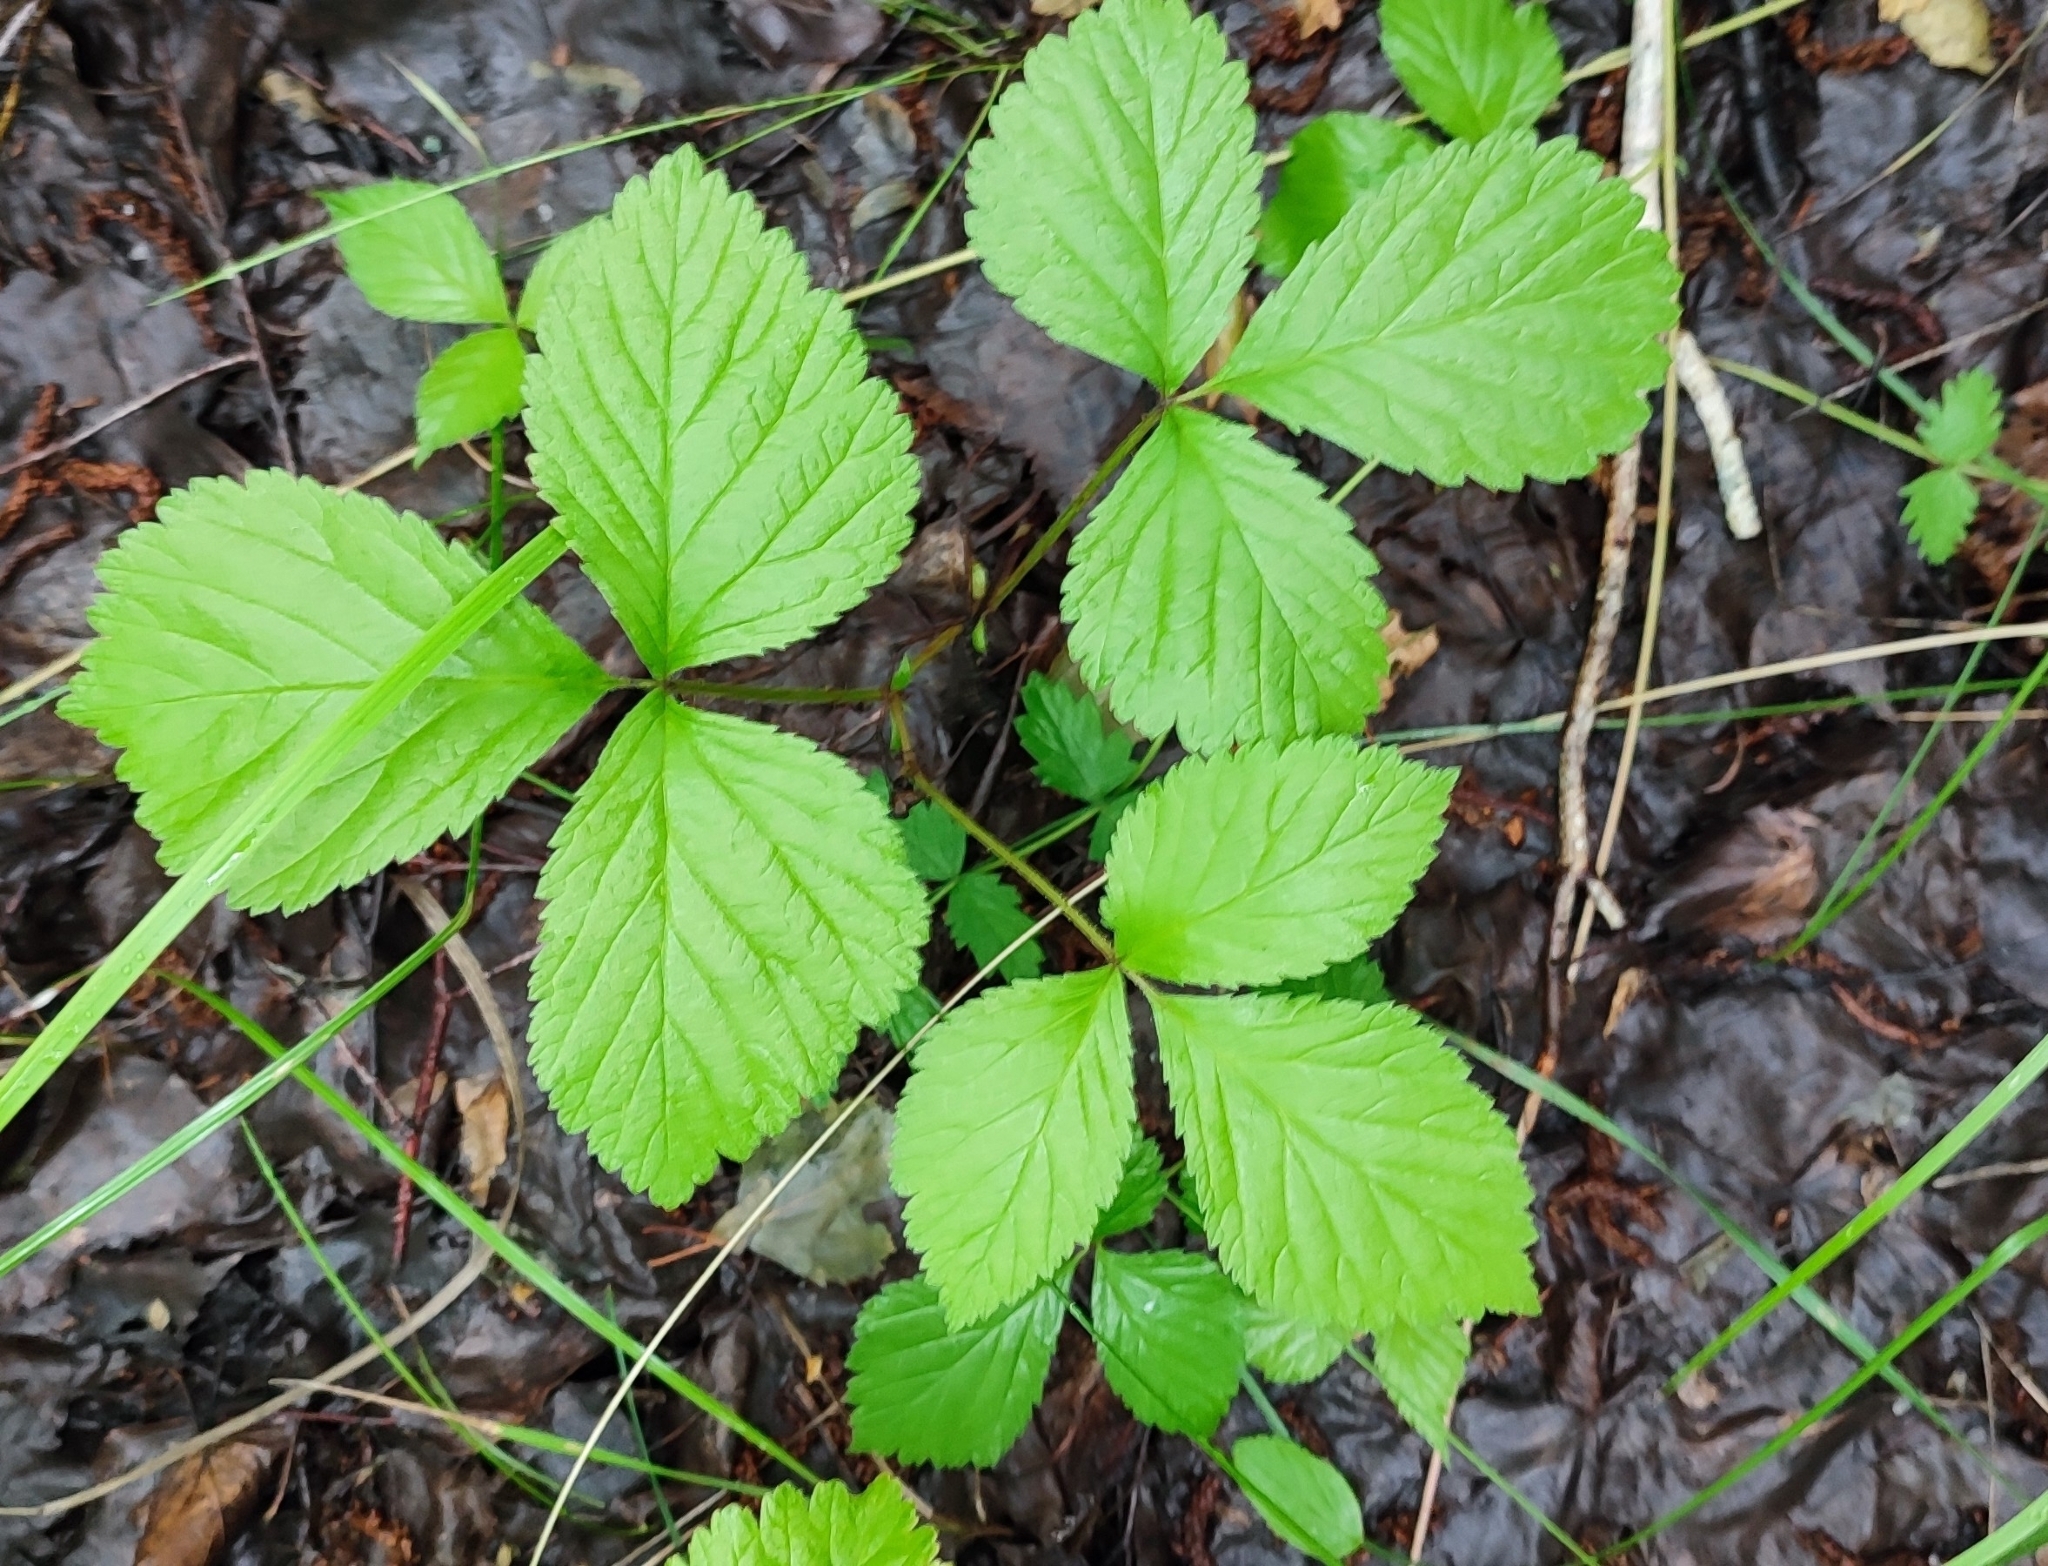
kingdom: Plantae
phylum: Tracheophyta
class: Magnoliopsida
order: Rosales
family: Rosaceae
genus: Rubus
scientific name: Rubus saxatilis
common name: Stone bramble
